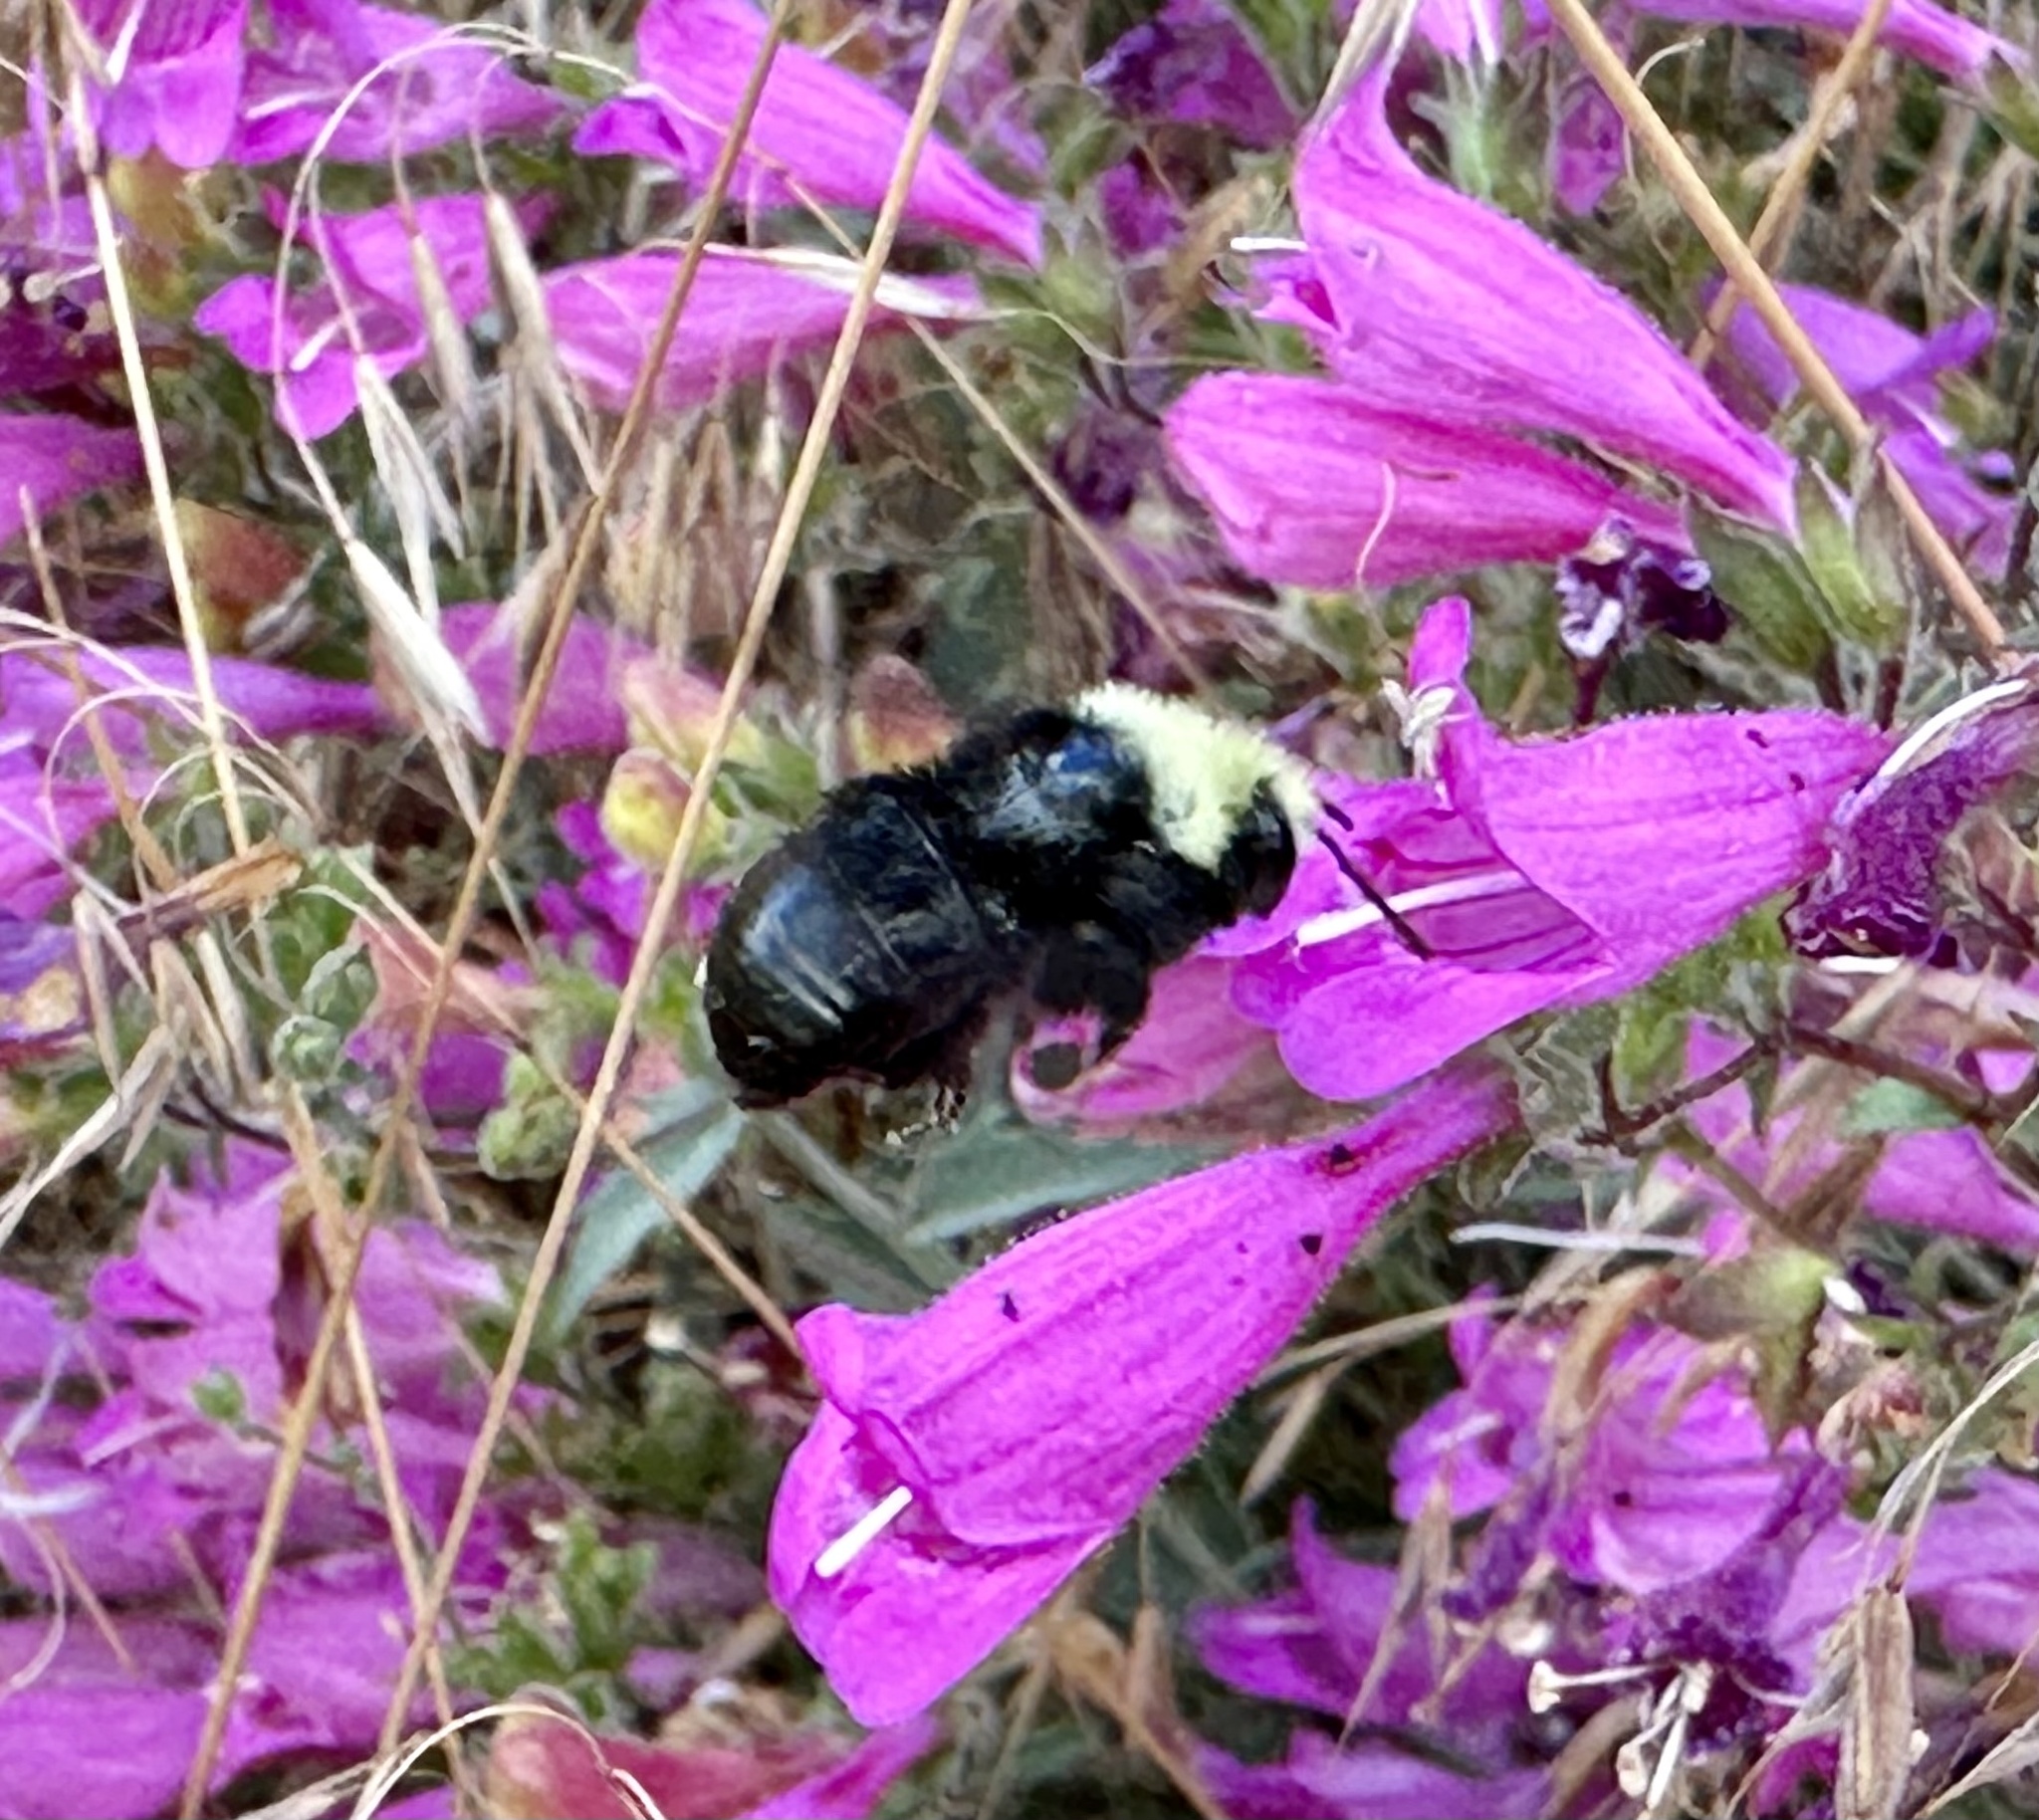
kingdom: Animalia
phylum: Arthropoda
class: Insecta
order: Hymenoptera
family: Apidae
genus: Pyrobombus
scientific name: Pyrobombus
